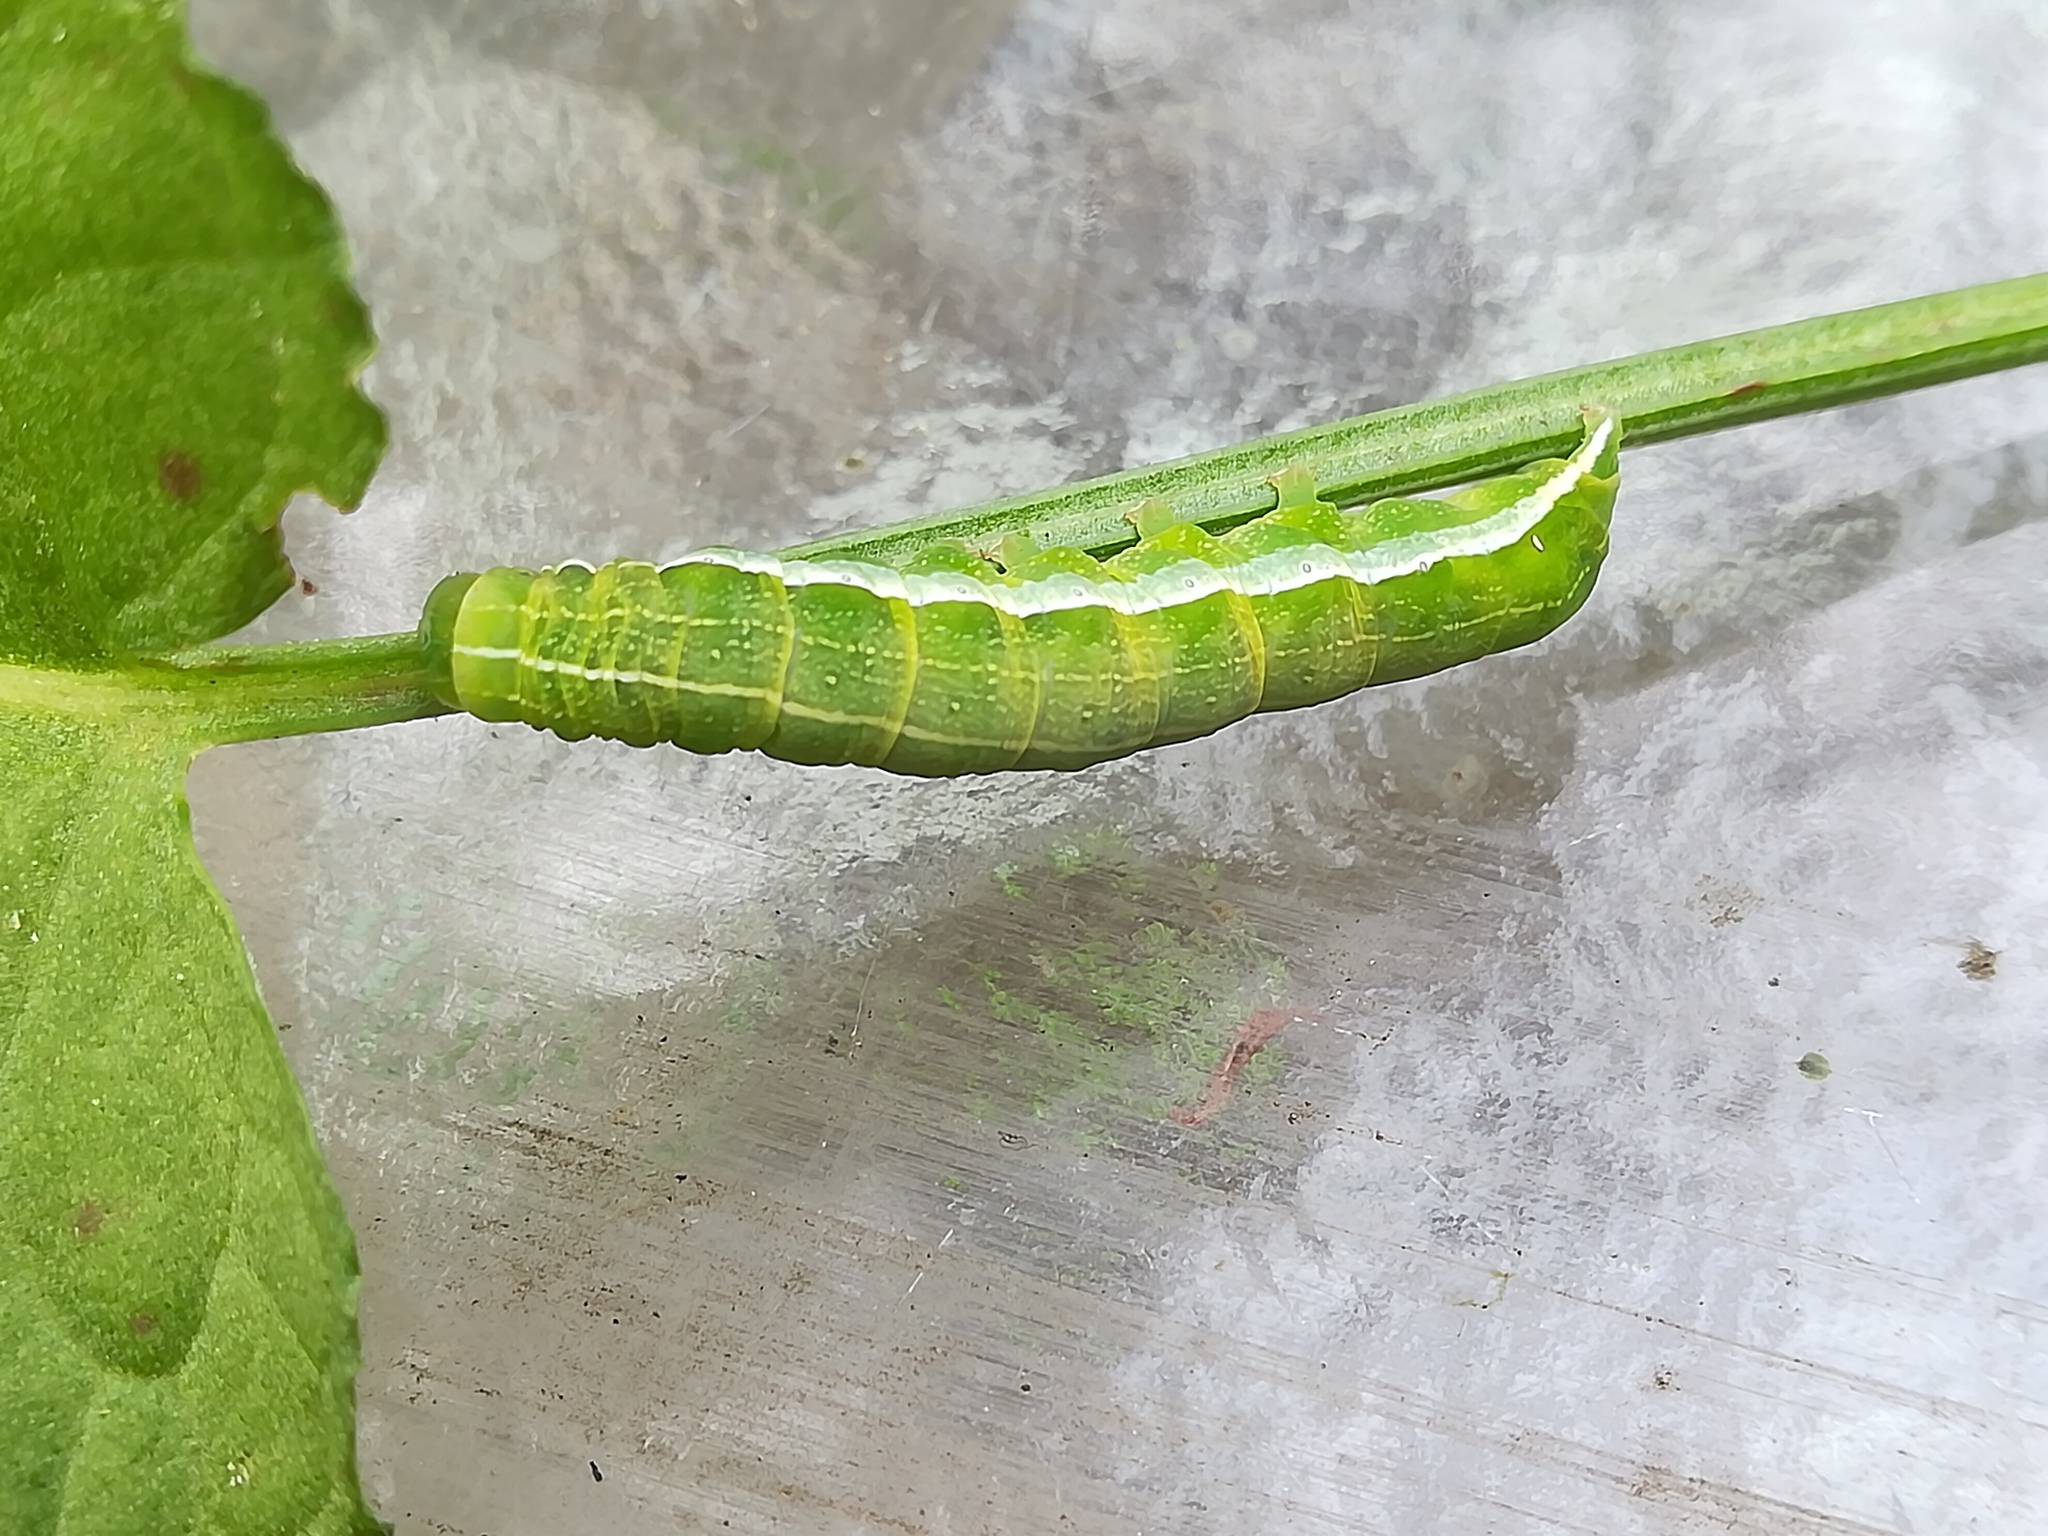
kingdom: Animalia
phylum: Arthropoda
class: Insecta
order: Lepidoptera
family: Noctuidae
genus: Orthosia
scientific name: Orthosia gothica
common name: Hebrew character
